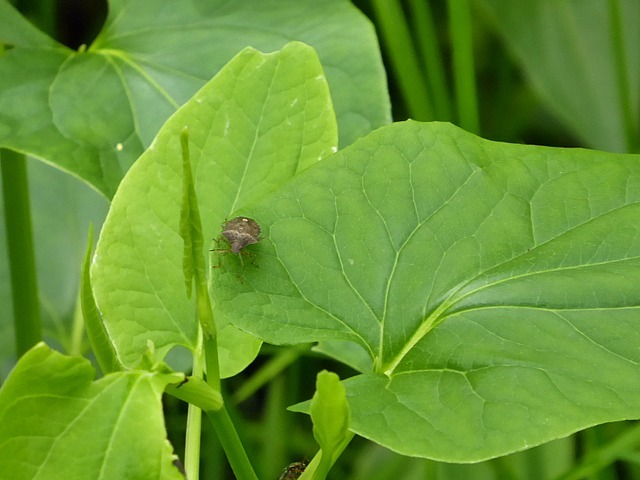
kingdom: Plantae
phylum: Tracheophyta
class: Magnoliopsida
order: Piperales
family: Saururaceae
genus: Saururus
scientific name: Saururus cernuus
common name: Lizard's-tail
